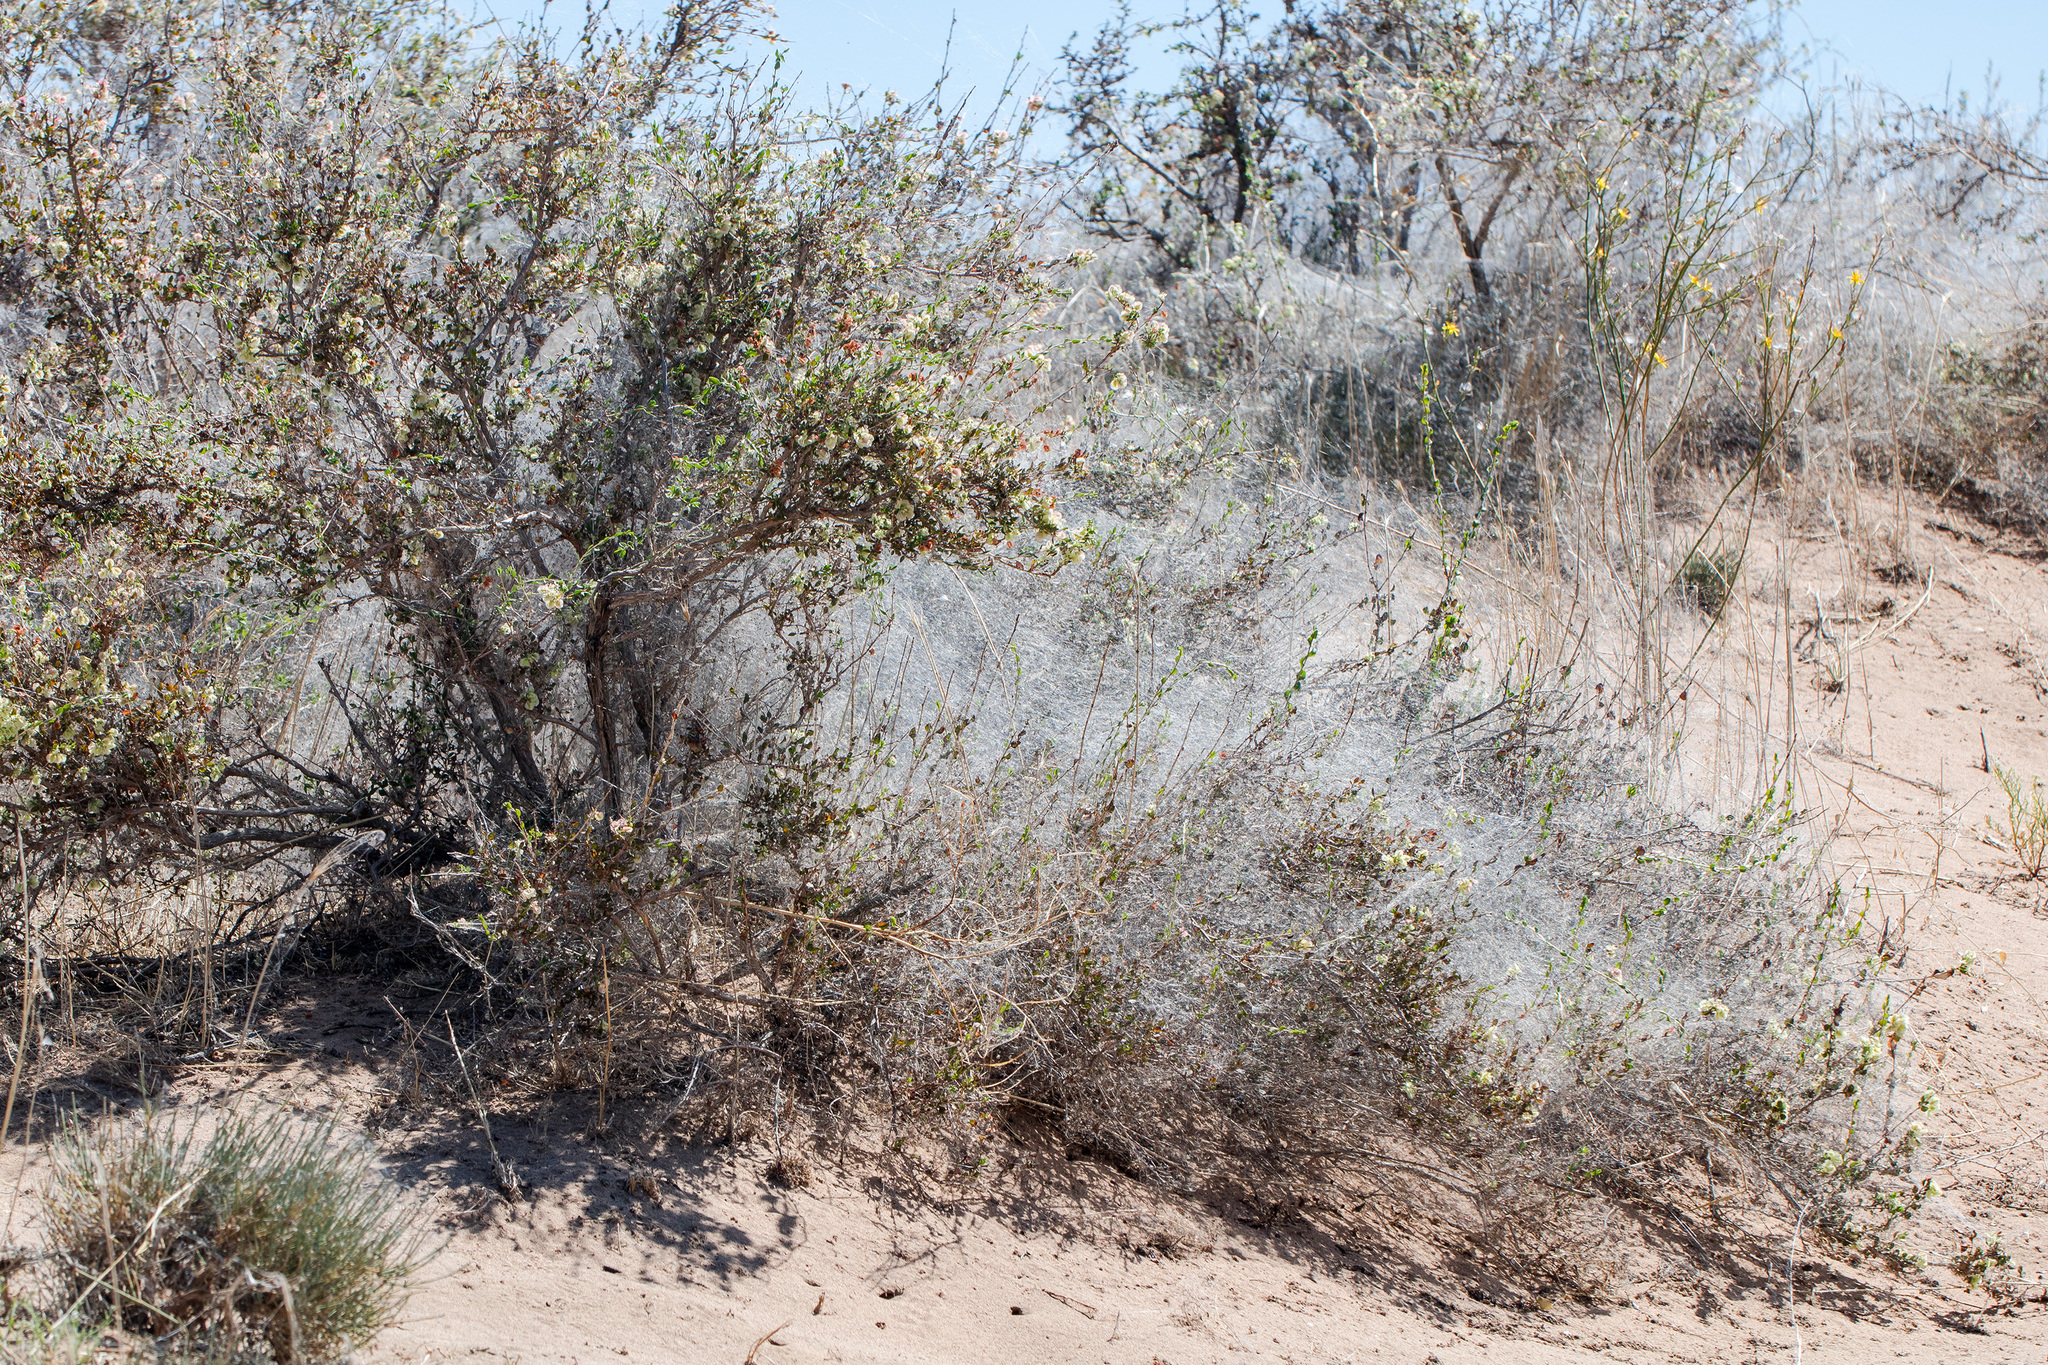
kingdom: Animalia
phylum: Arthropoda
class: Arachnida
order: Araneae
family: Araneidae
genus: Araneus
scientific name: Araneus pallasi
